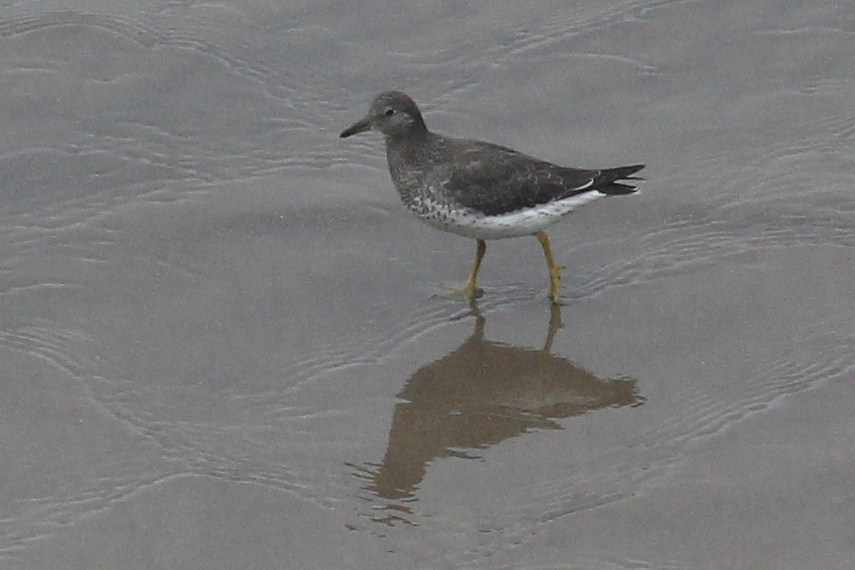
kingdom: Animalia
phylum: Chordata
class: Aves
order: Charadriiformes
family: Scolopacidae
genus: Calidris
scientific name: Calidris virgata
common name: Surfbird
